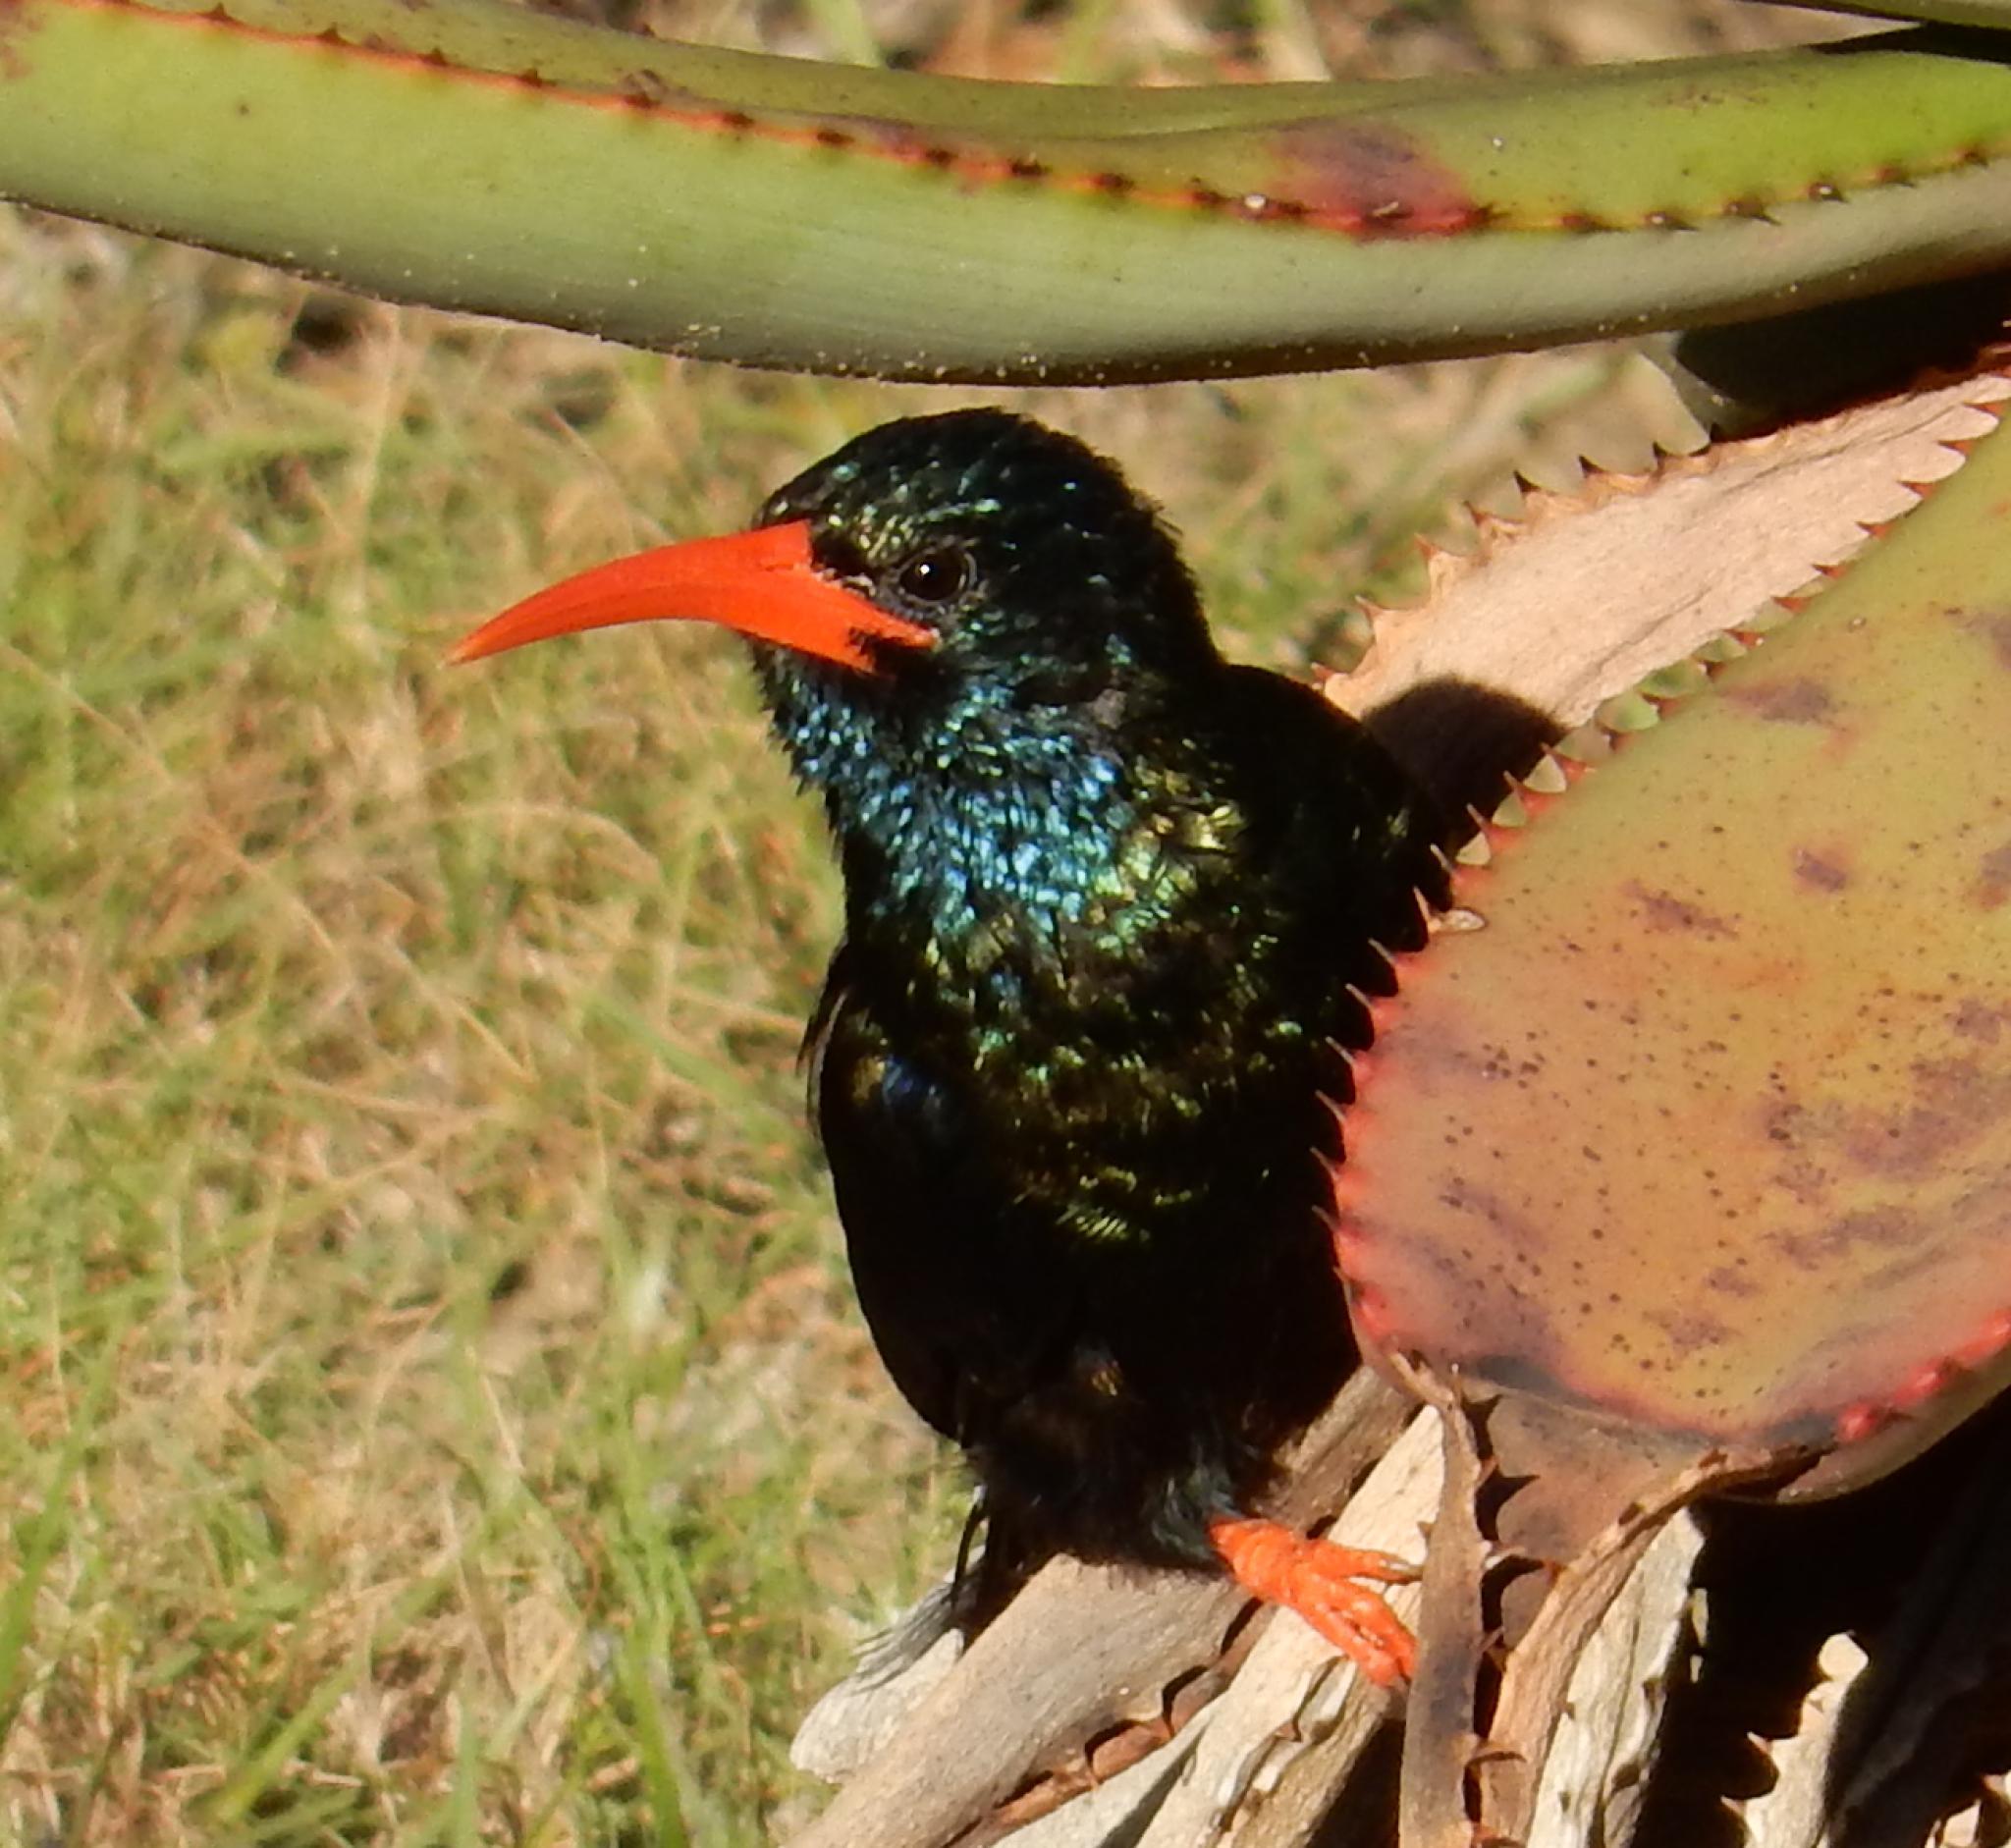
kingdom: Animalia
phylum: Chordata
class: Aves
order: Bucerotiformes
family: Phoeniculidae
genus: Phoeniculus
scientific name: Phoeniculus purpureus
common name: Green woodhoopoe
